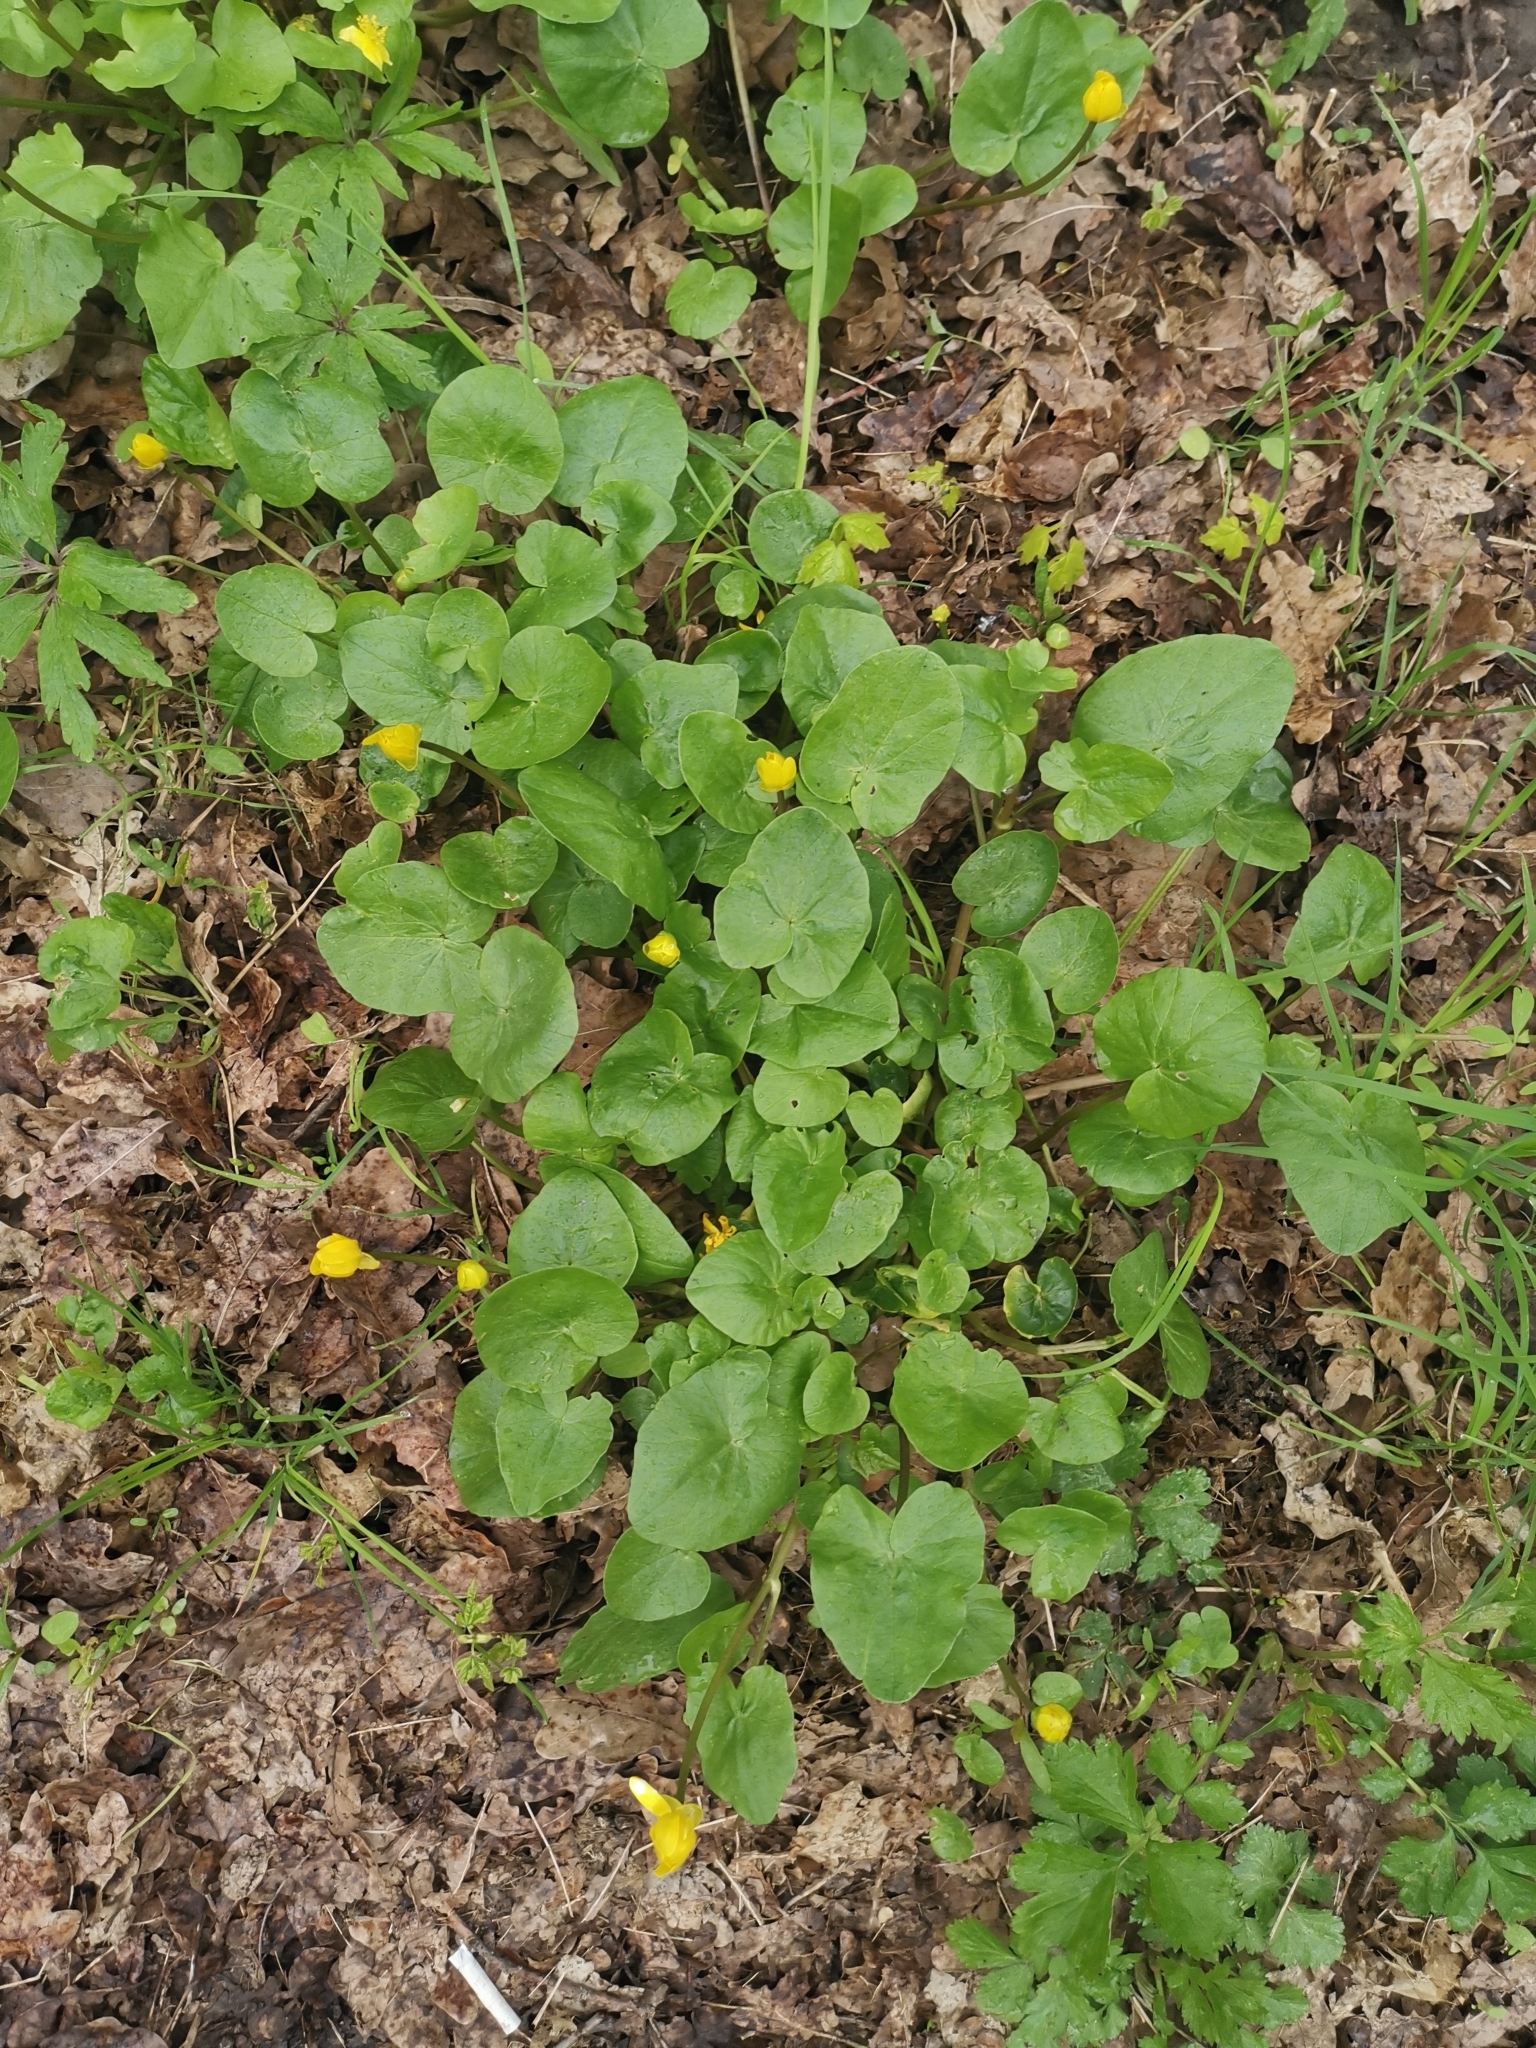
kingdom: Plantae
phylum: Tracheophyta
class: Magnoliopsida
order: Ranunculales
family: Ranunculaceae
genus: Ficaria
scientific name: Ficaria verna
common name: Lesser celandine
